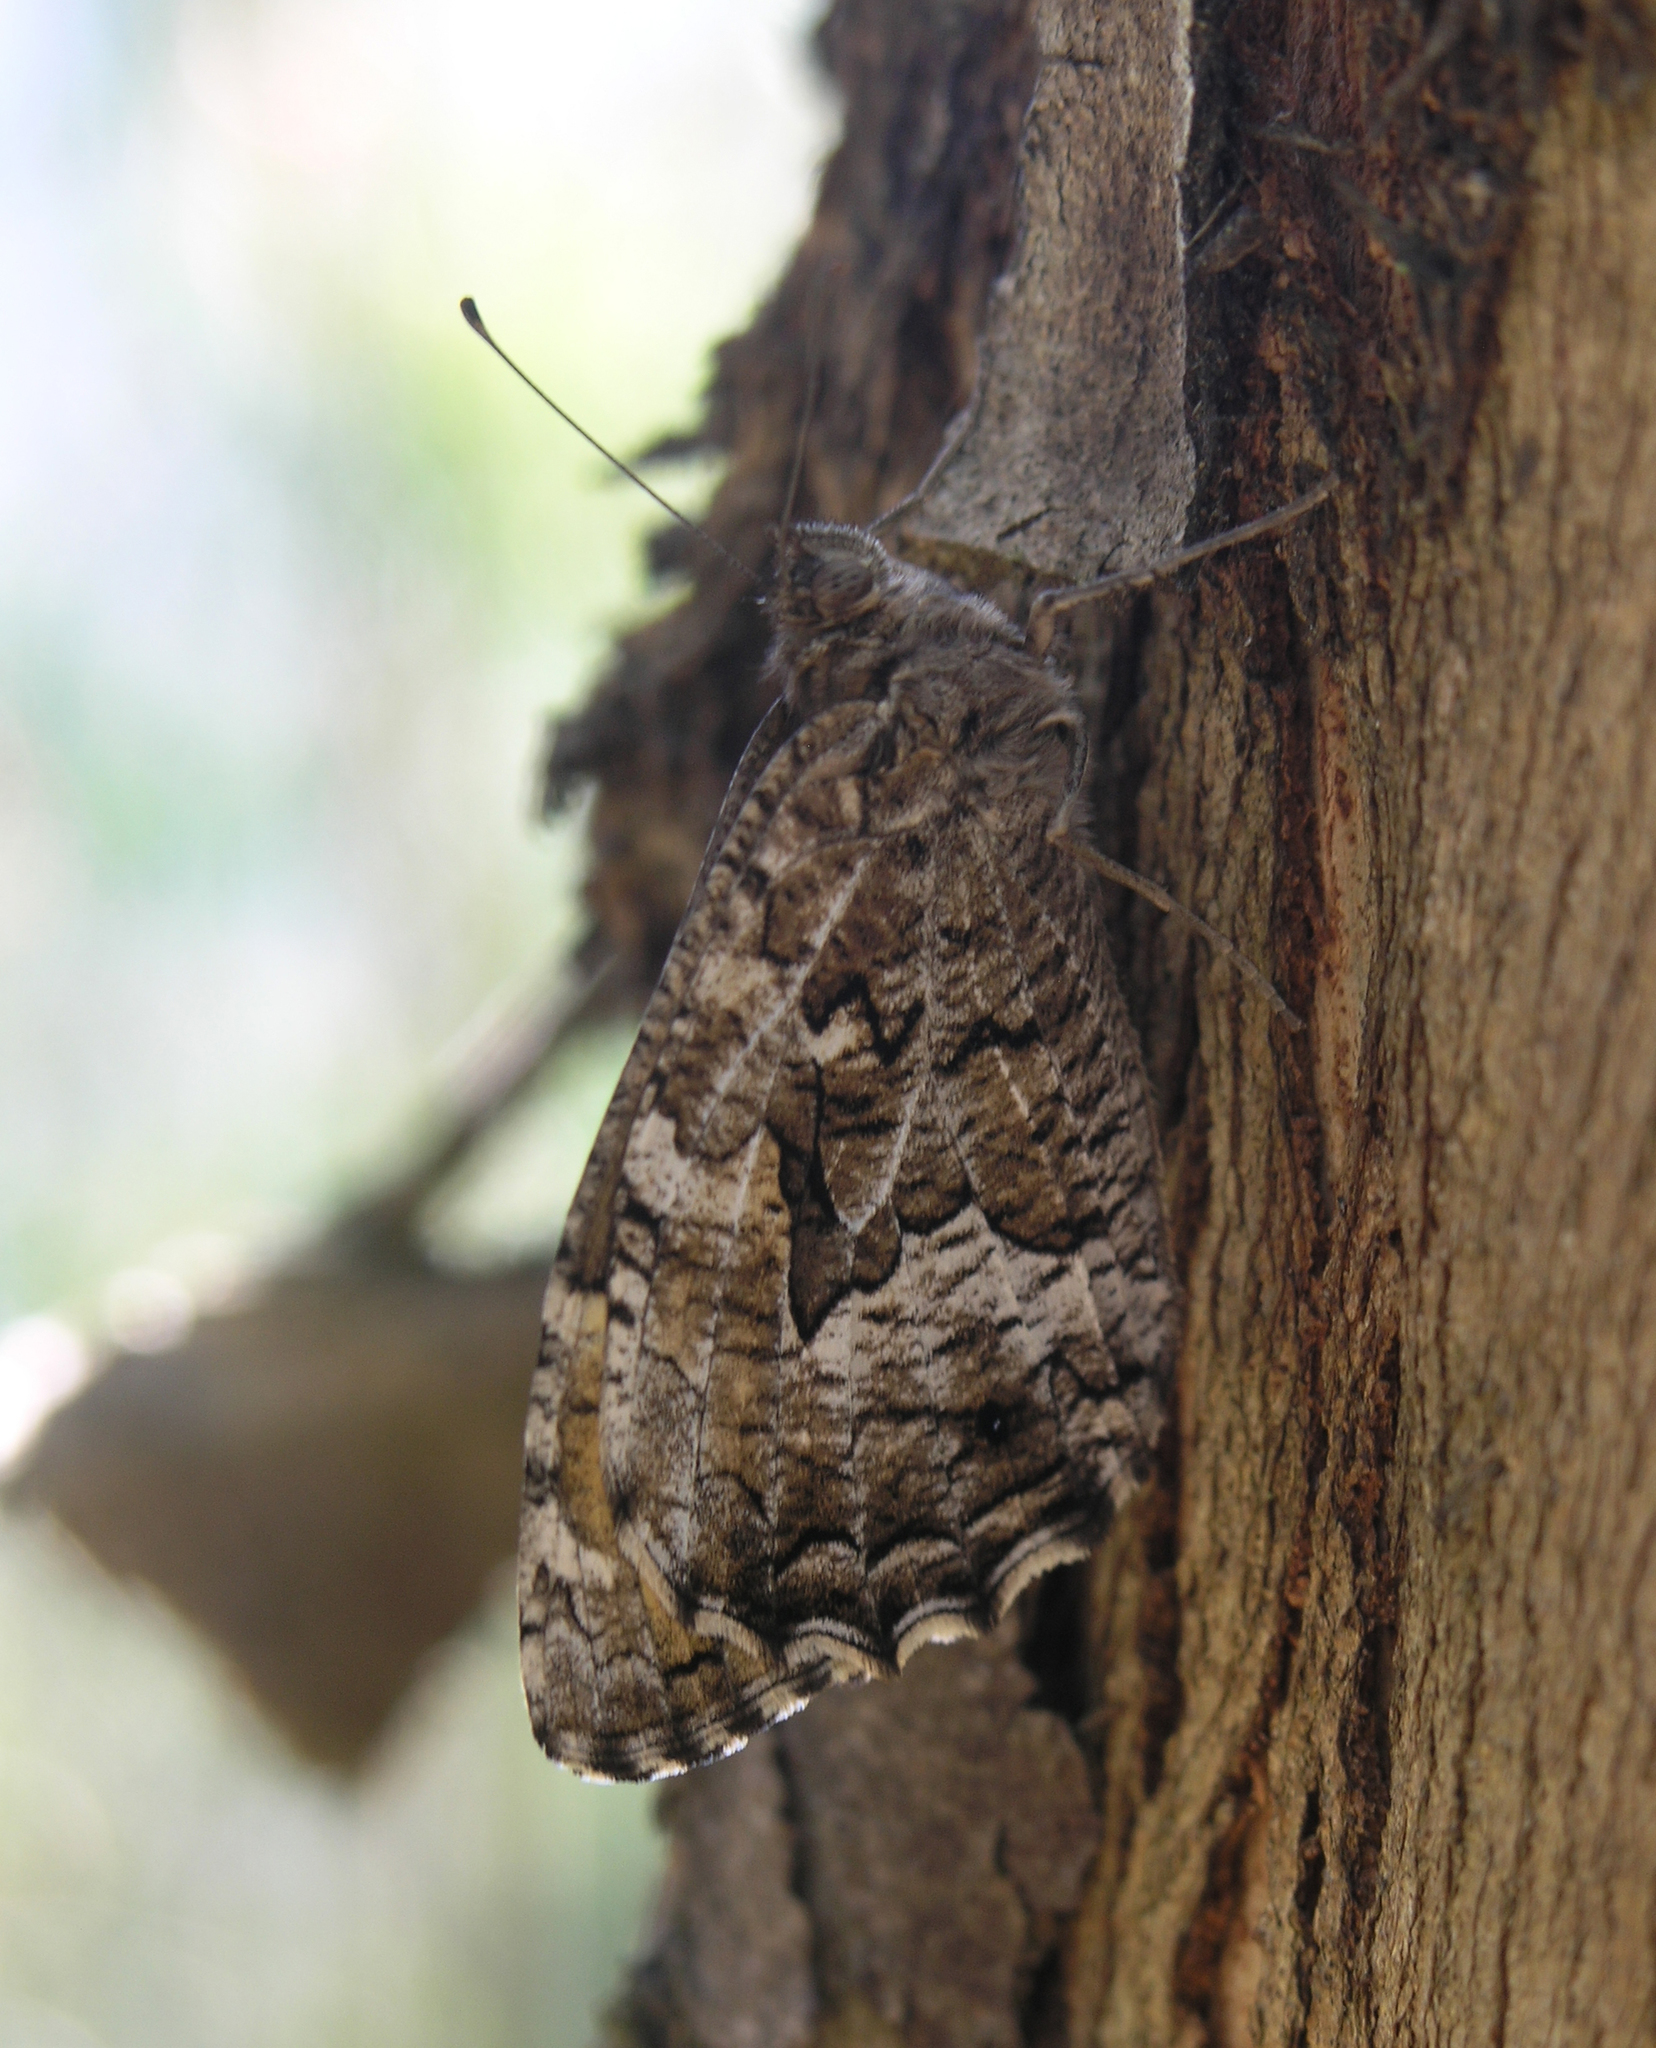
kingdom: Animalia
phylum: Arthropoda
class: Insecta
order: Lepidoptera
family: Nymphalidae
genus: Hipparchia
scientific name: Hipparchia semele
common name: Grayling
